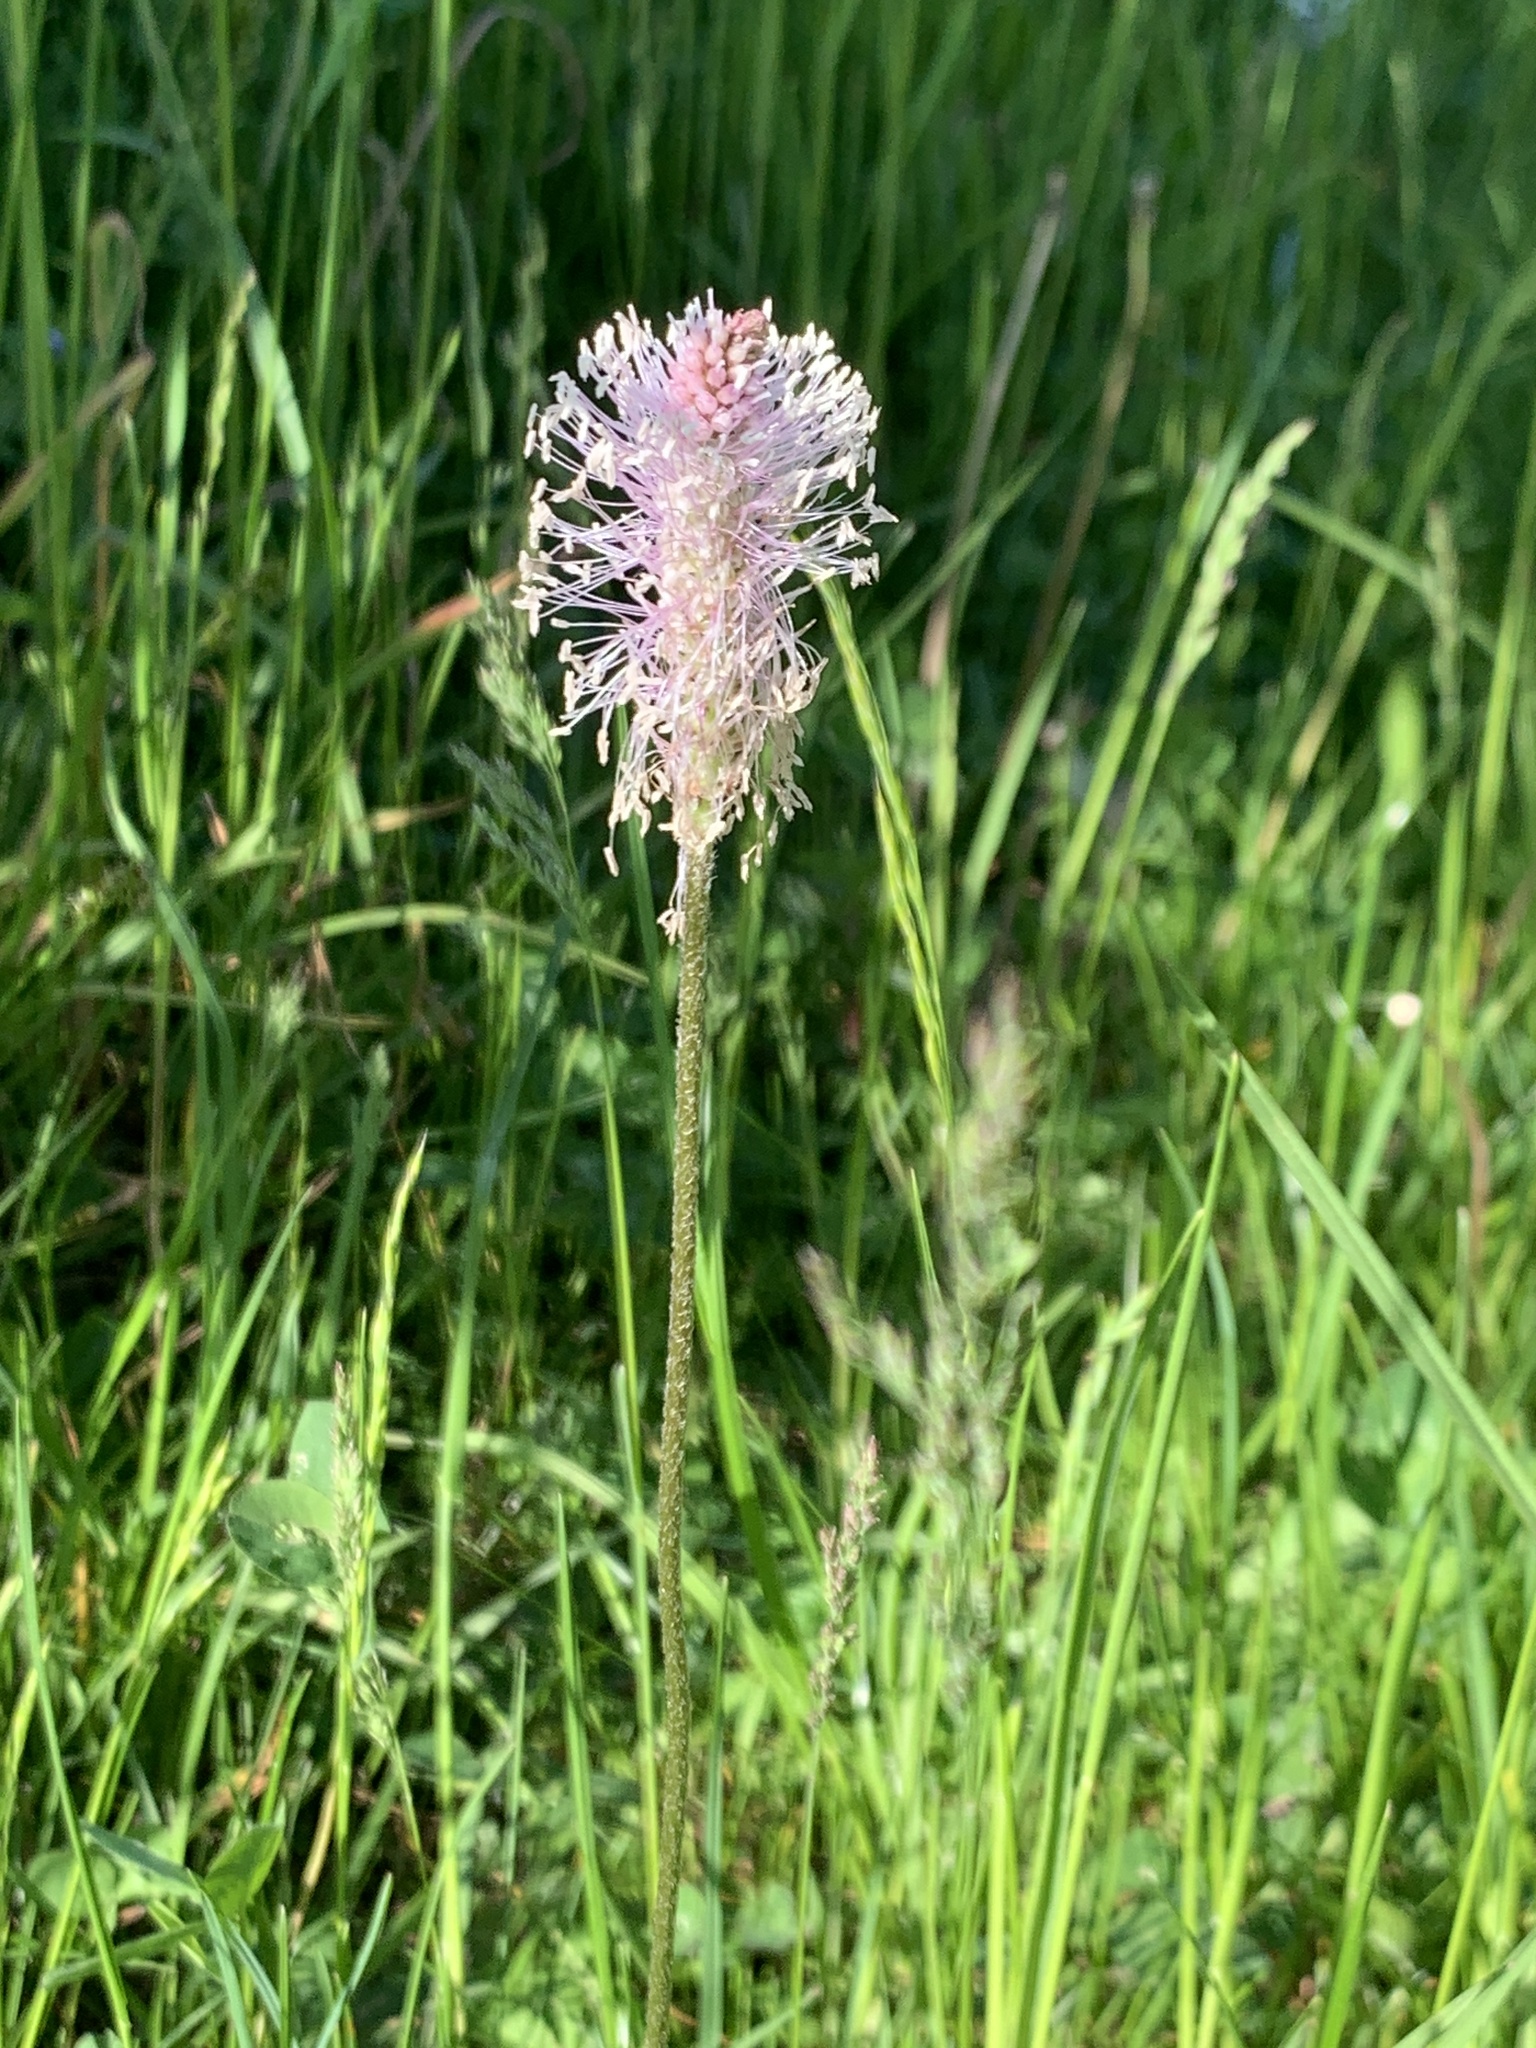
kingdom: Plantae
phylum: Tracheophyta
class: Magnoliopsida
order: Lamiales
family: Plantaginaceae
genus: Plantago
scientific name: Plantago media
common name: Hoary plantain
